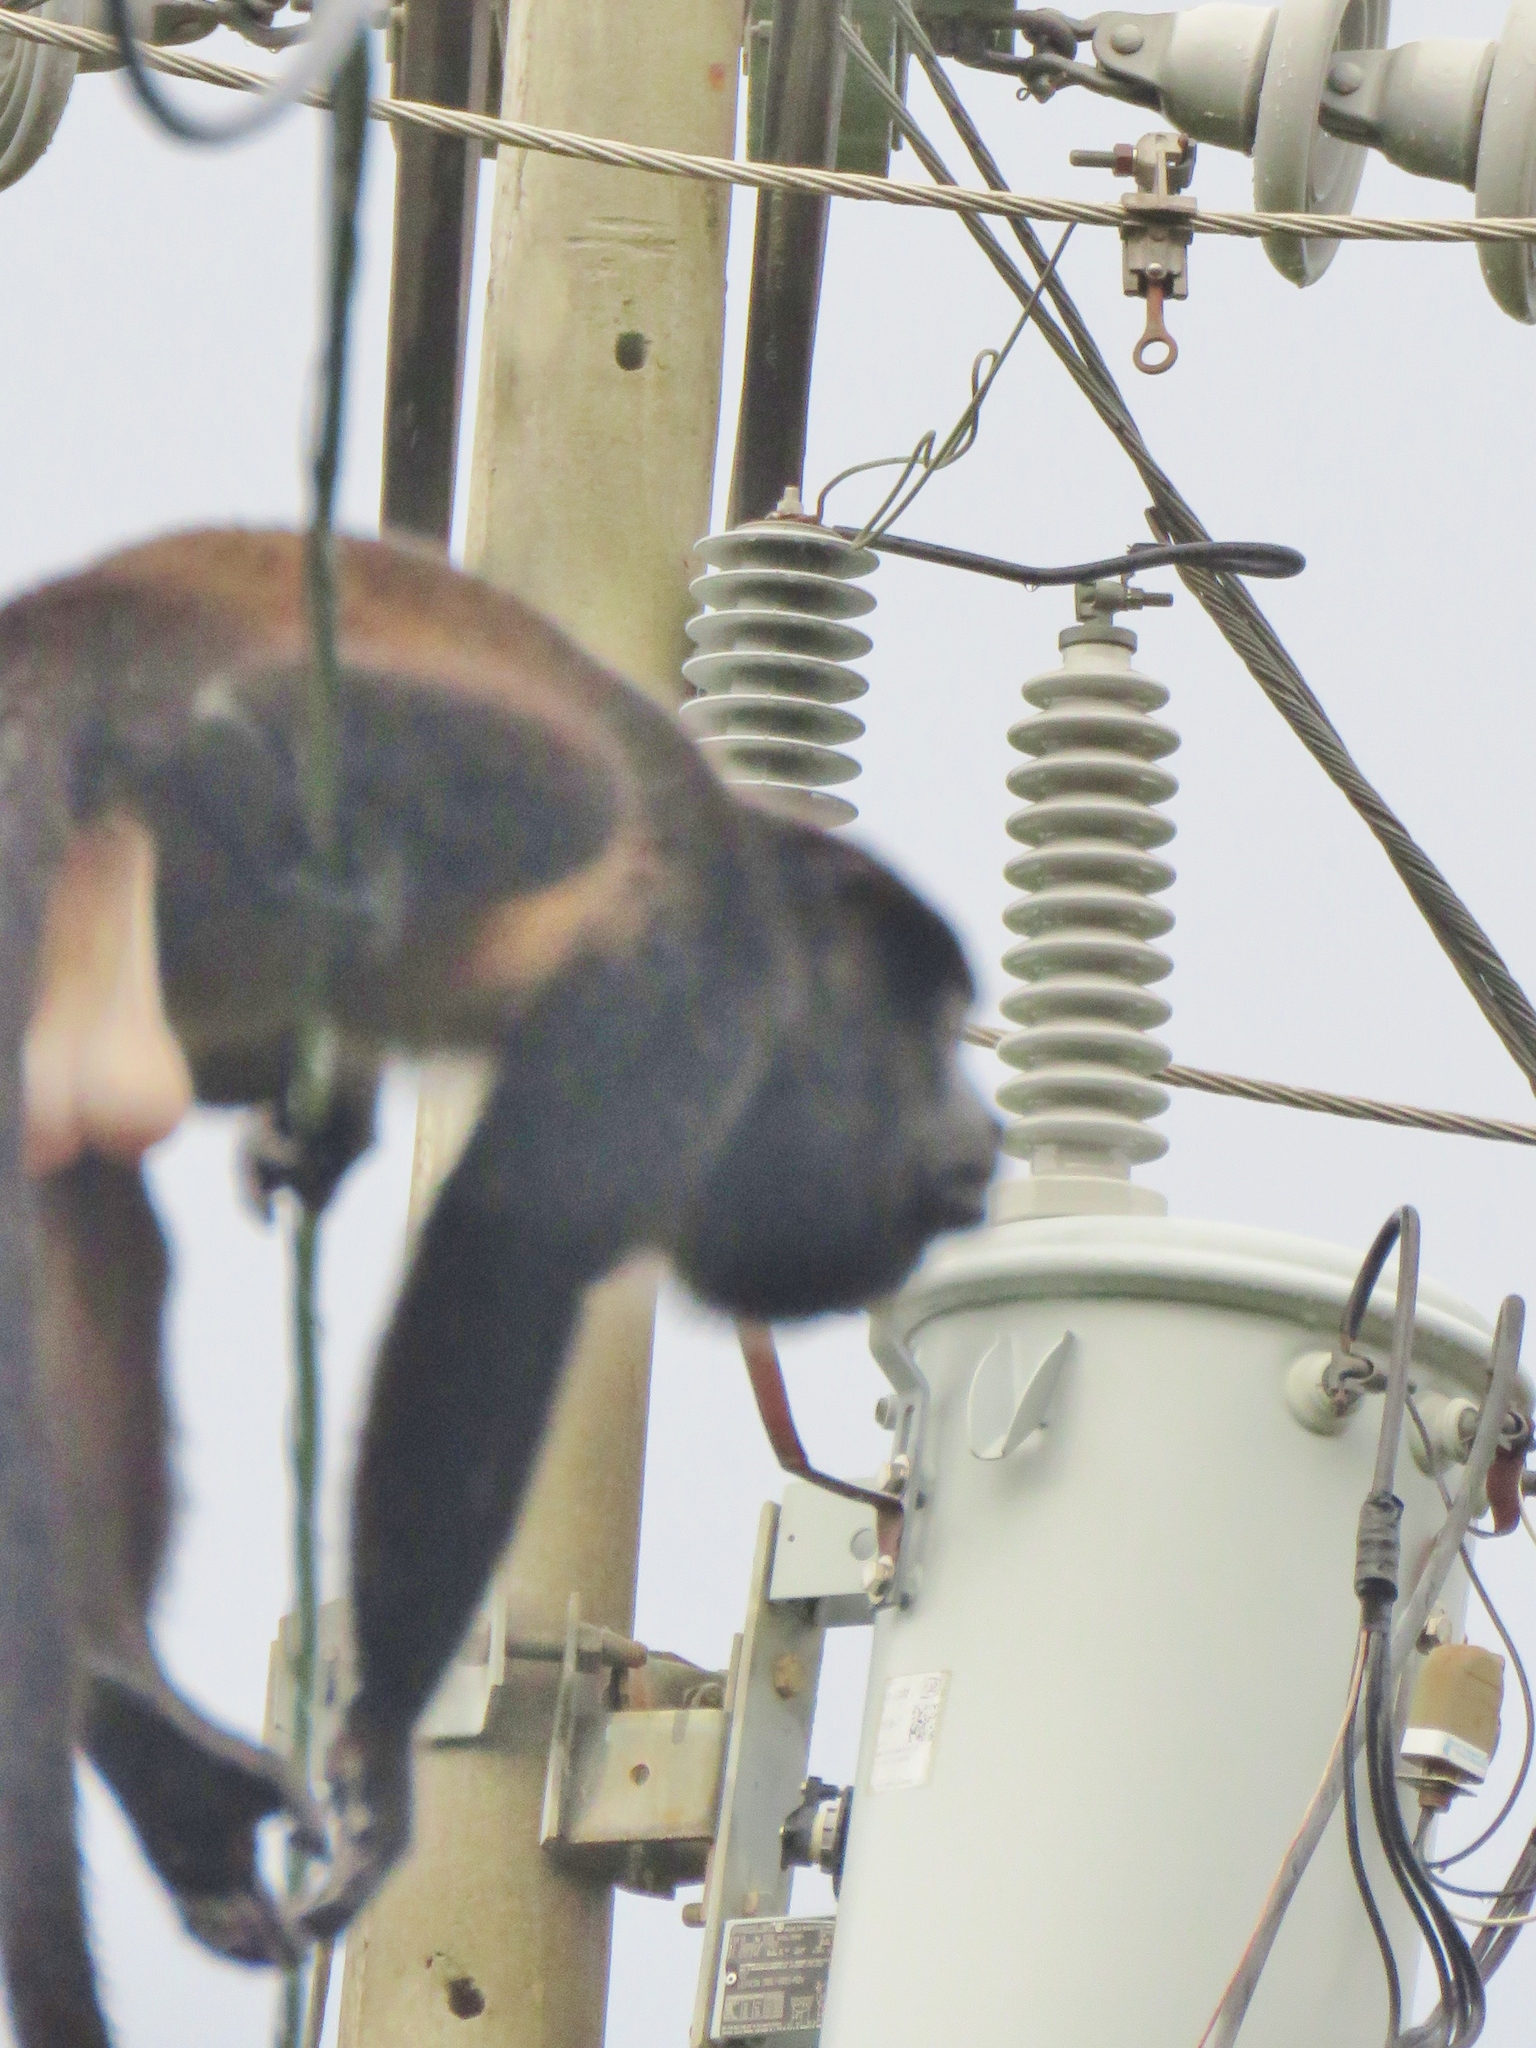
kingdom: Animalia
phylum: Chordata
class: Mammalia
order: Primates
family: Atelidae
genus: Alouatta
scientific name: Alouatta palliata
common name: Mantled howler
